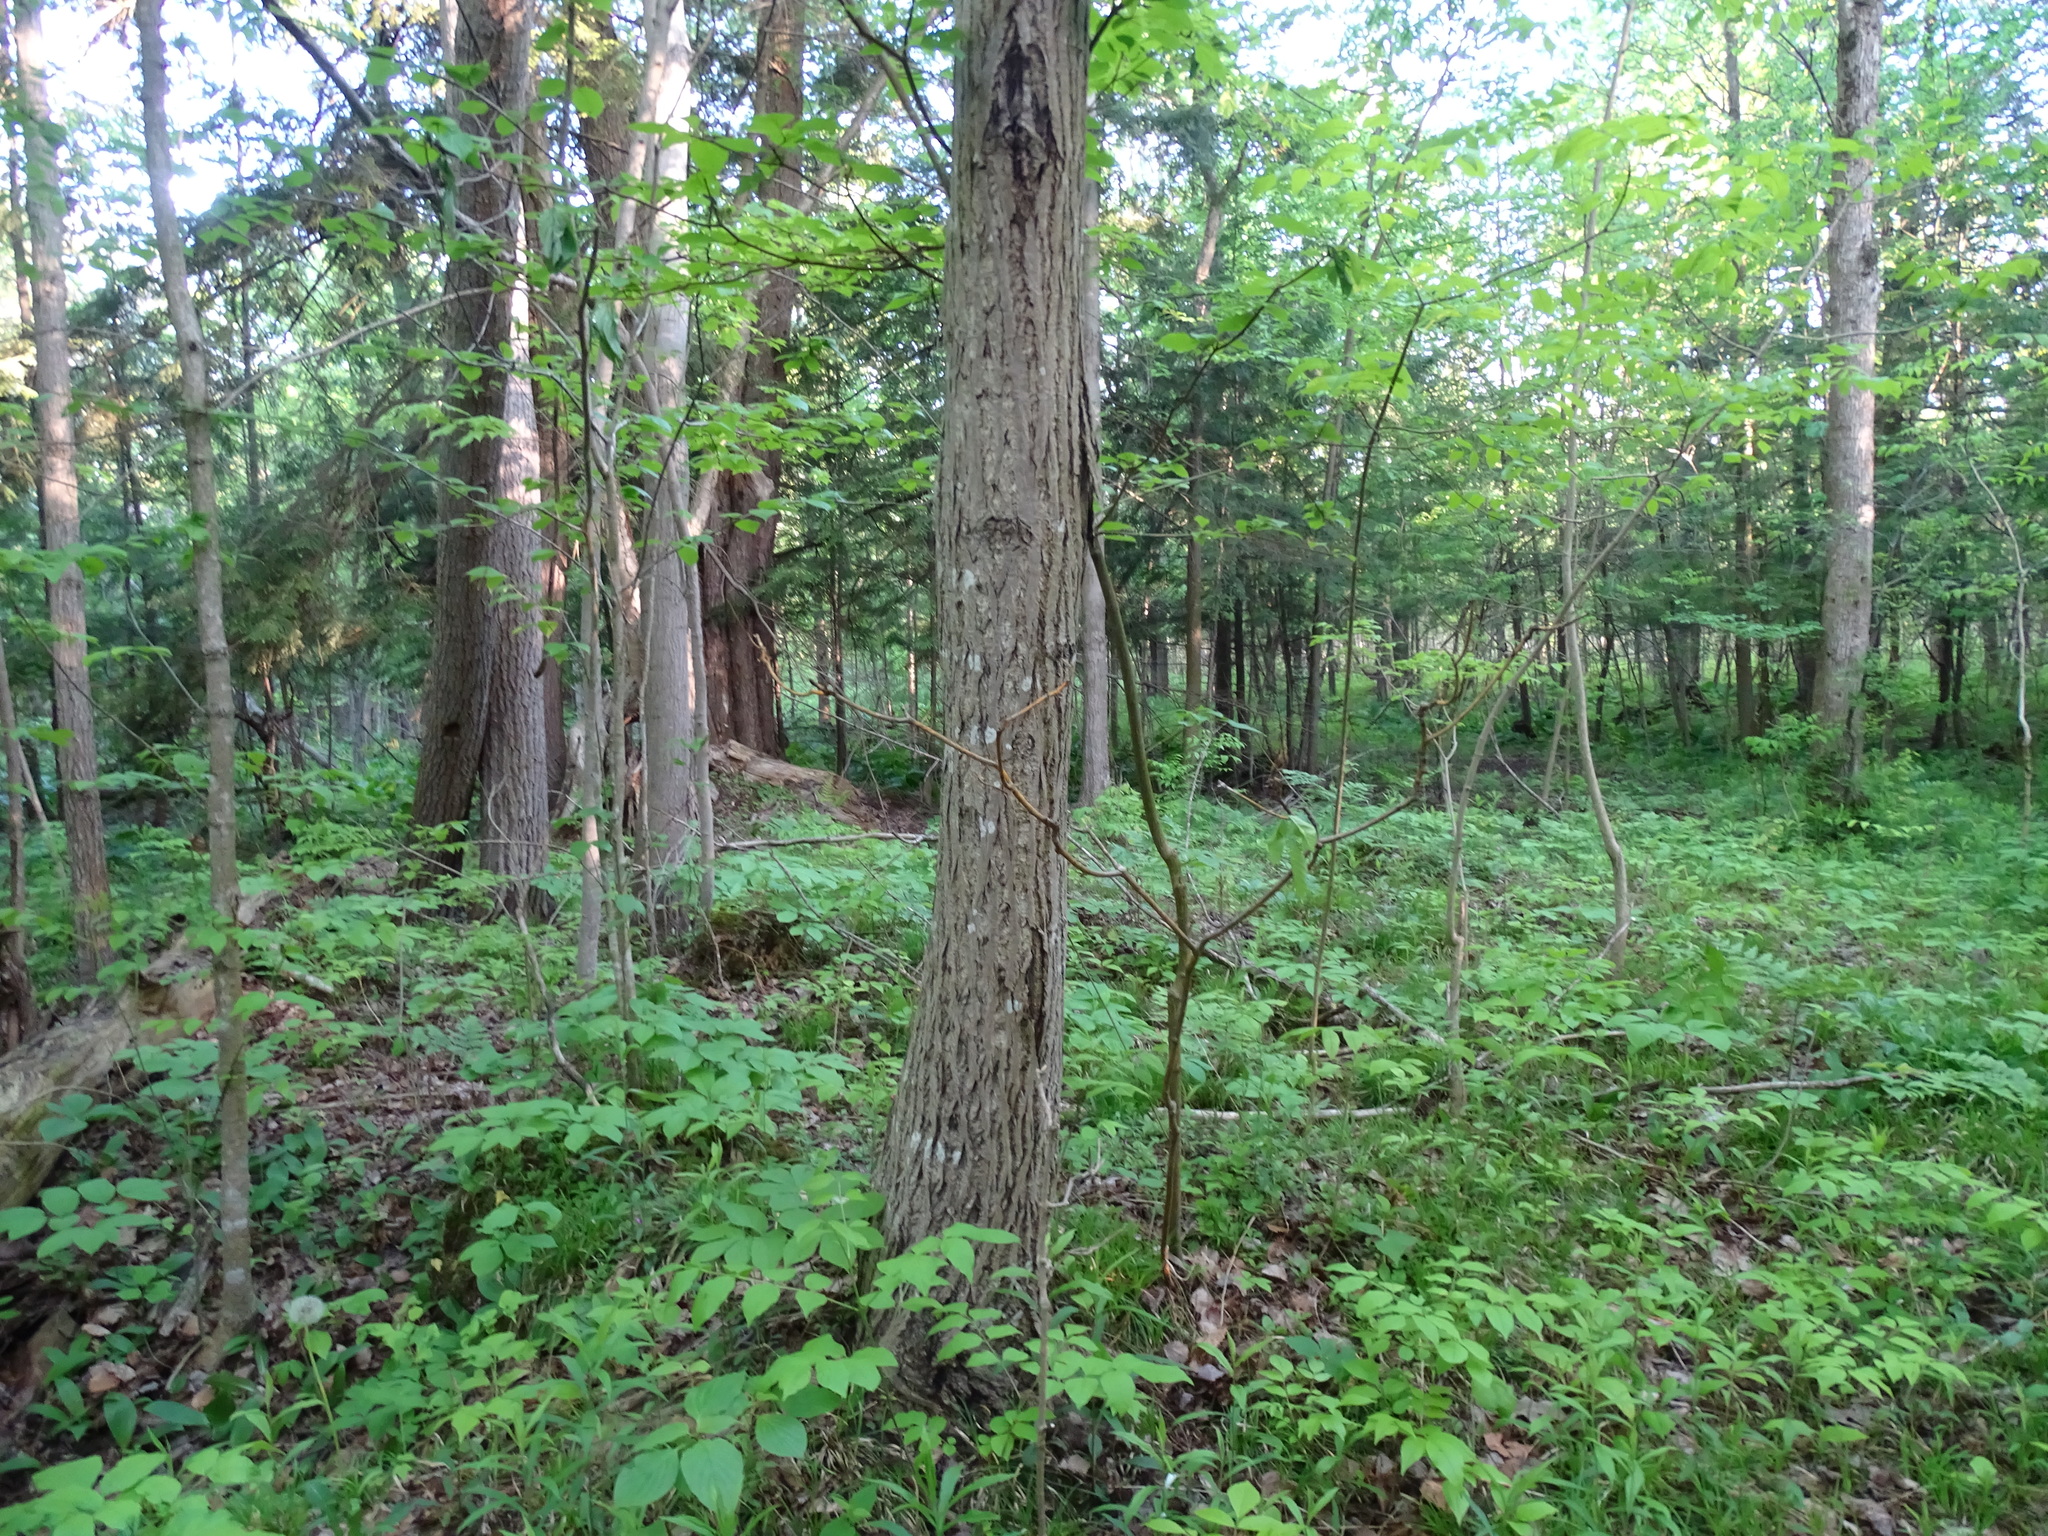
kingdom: Plantae
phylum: Tracheophyta
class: Magnoliopsida
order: Fagales
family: Juglandaceae
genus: Juglans
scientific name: Juglans cinerea
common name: Butternut
